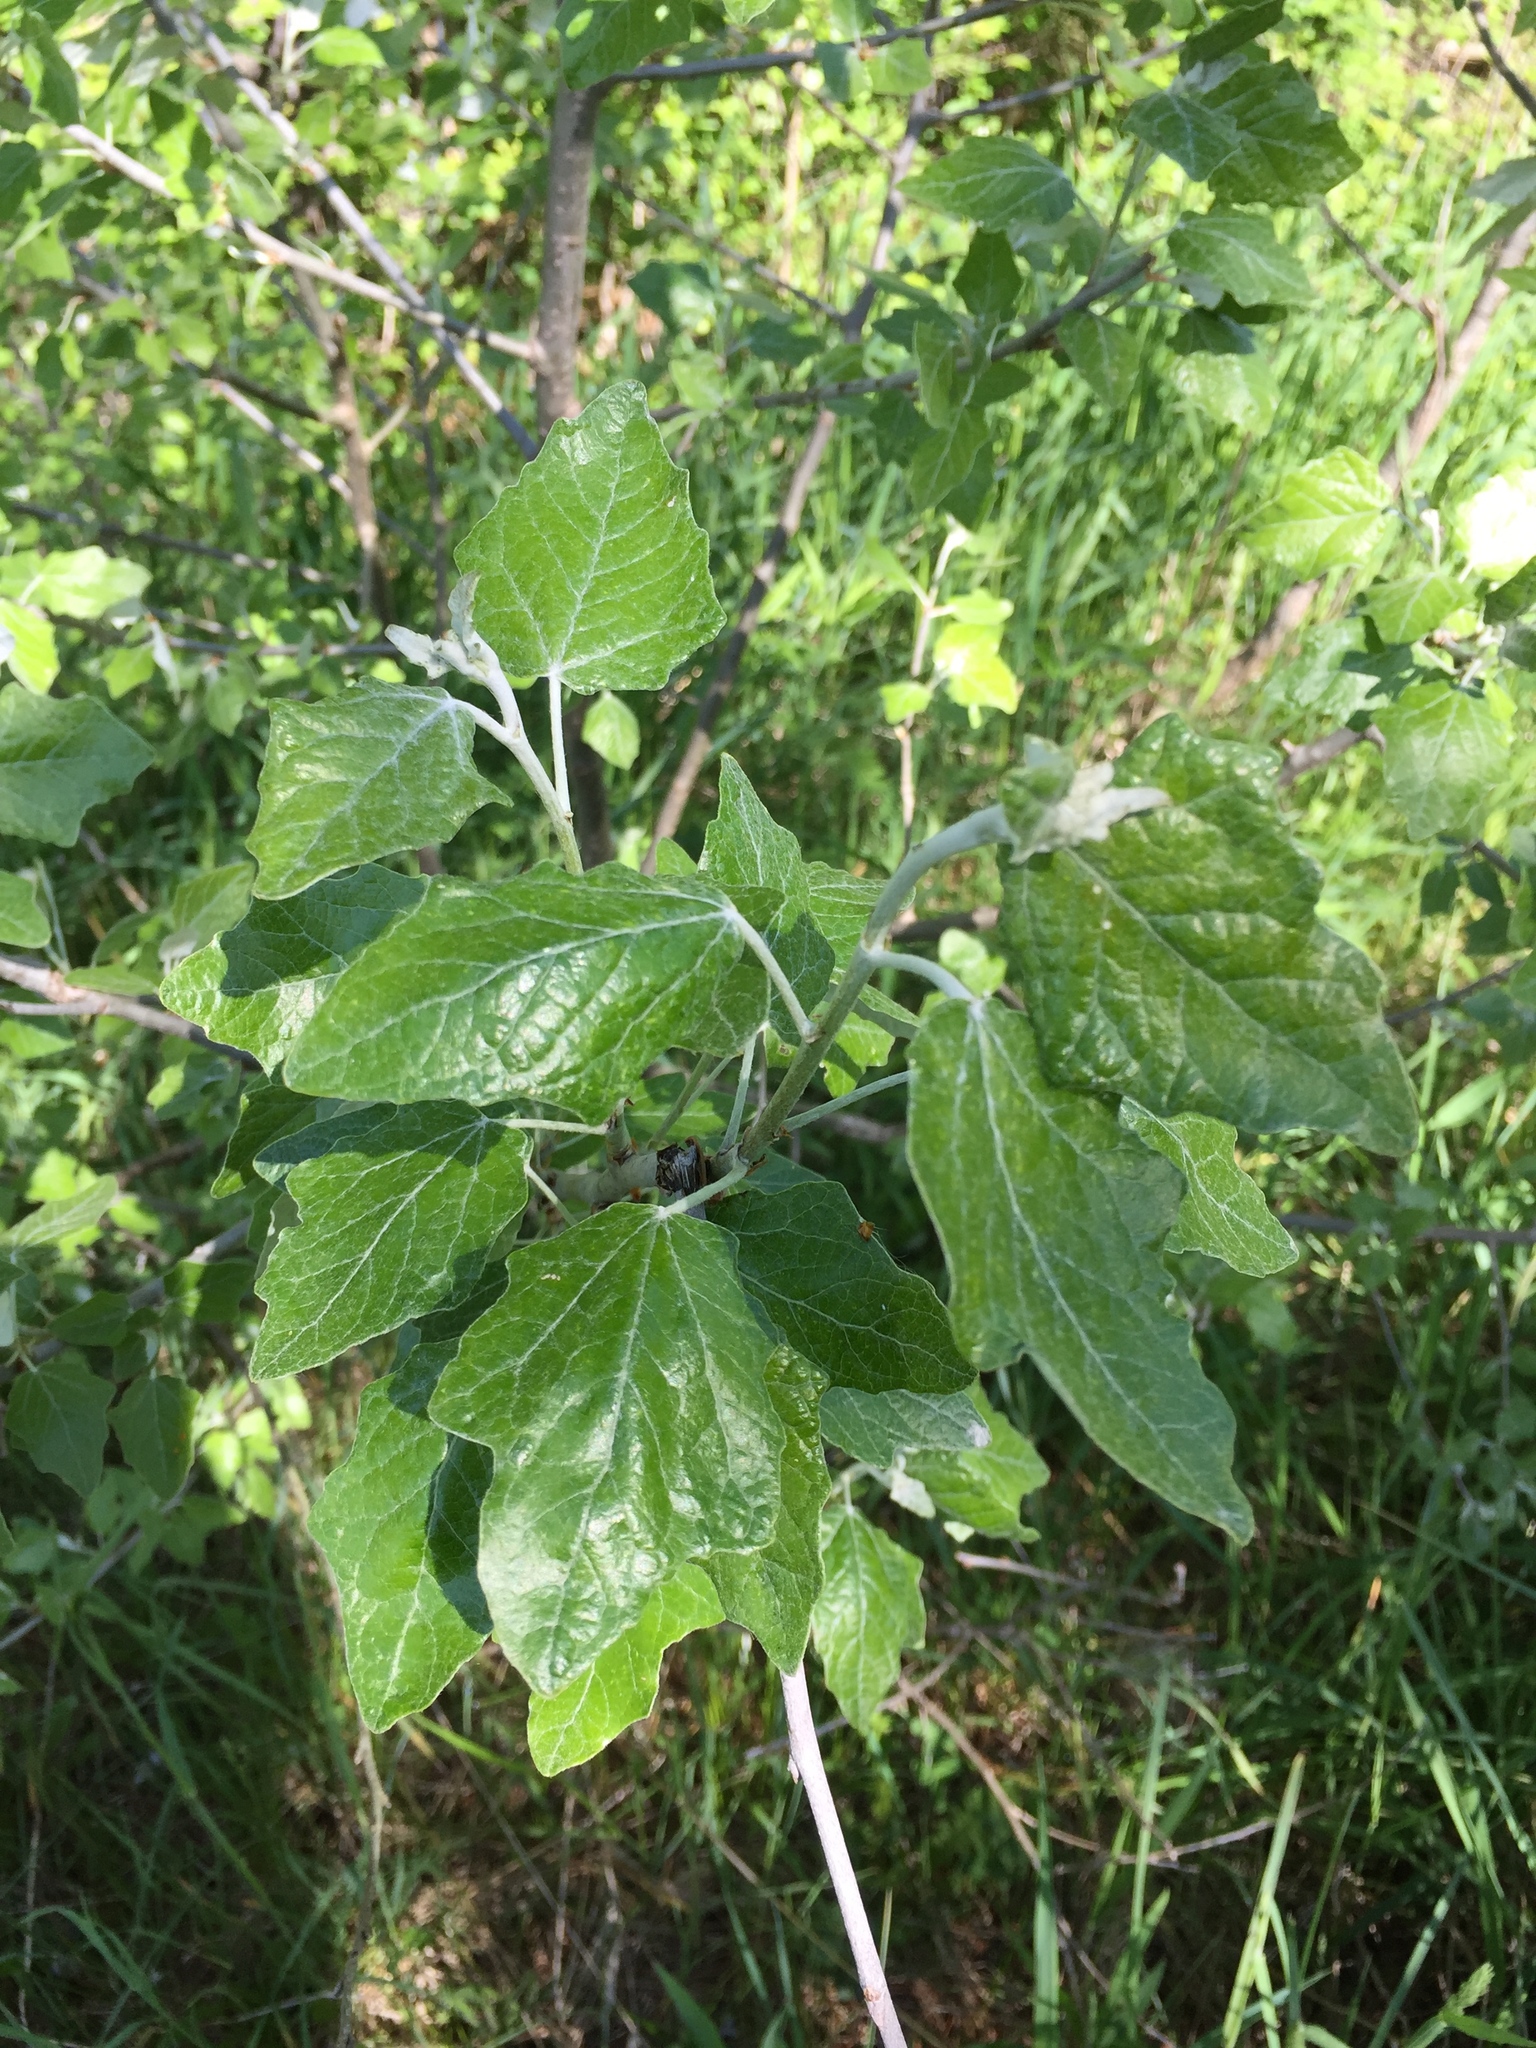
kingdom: Plantae
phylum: Tracheophyta
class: Magnoliopsida
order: Malpighiales
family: Salicaceae
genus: Populus
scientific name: Populus alba
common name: White poplar
